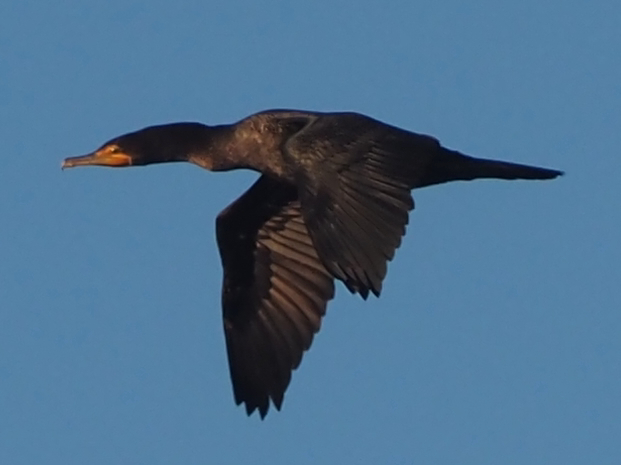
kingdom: Animalia
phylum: Chordata
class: Aves
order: Suliformes
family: Phalacrocoracidae
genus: Phalacrocorax
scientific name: Phalacrocorax auritus
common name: Double-crested cormorant
